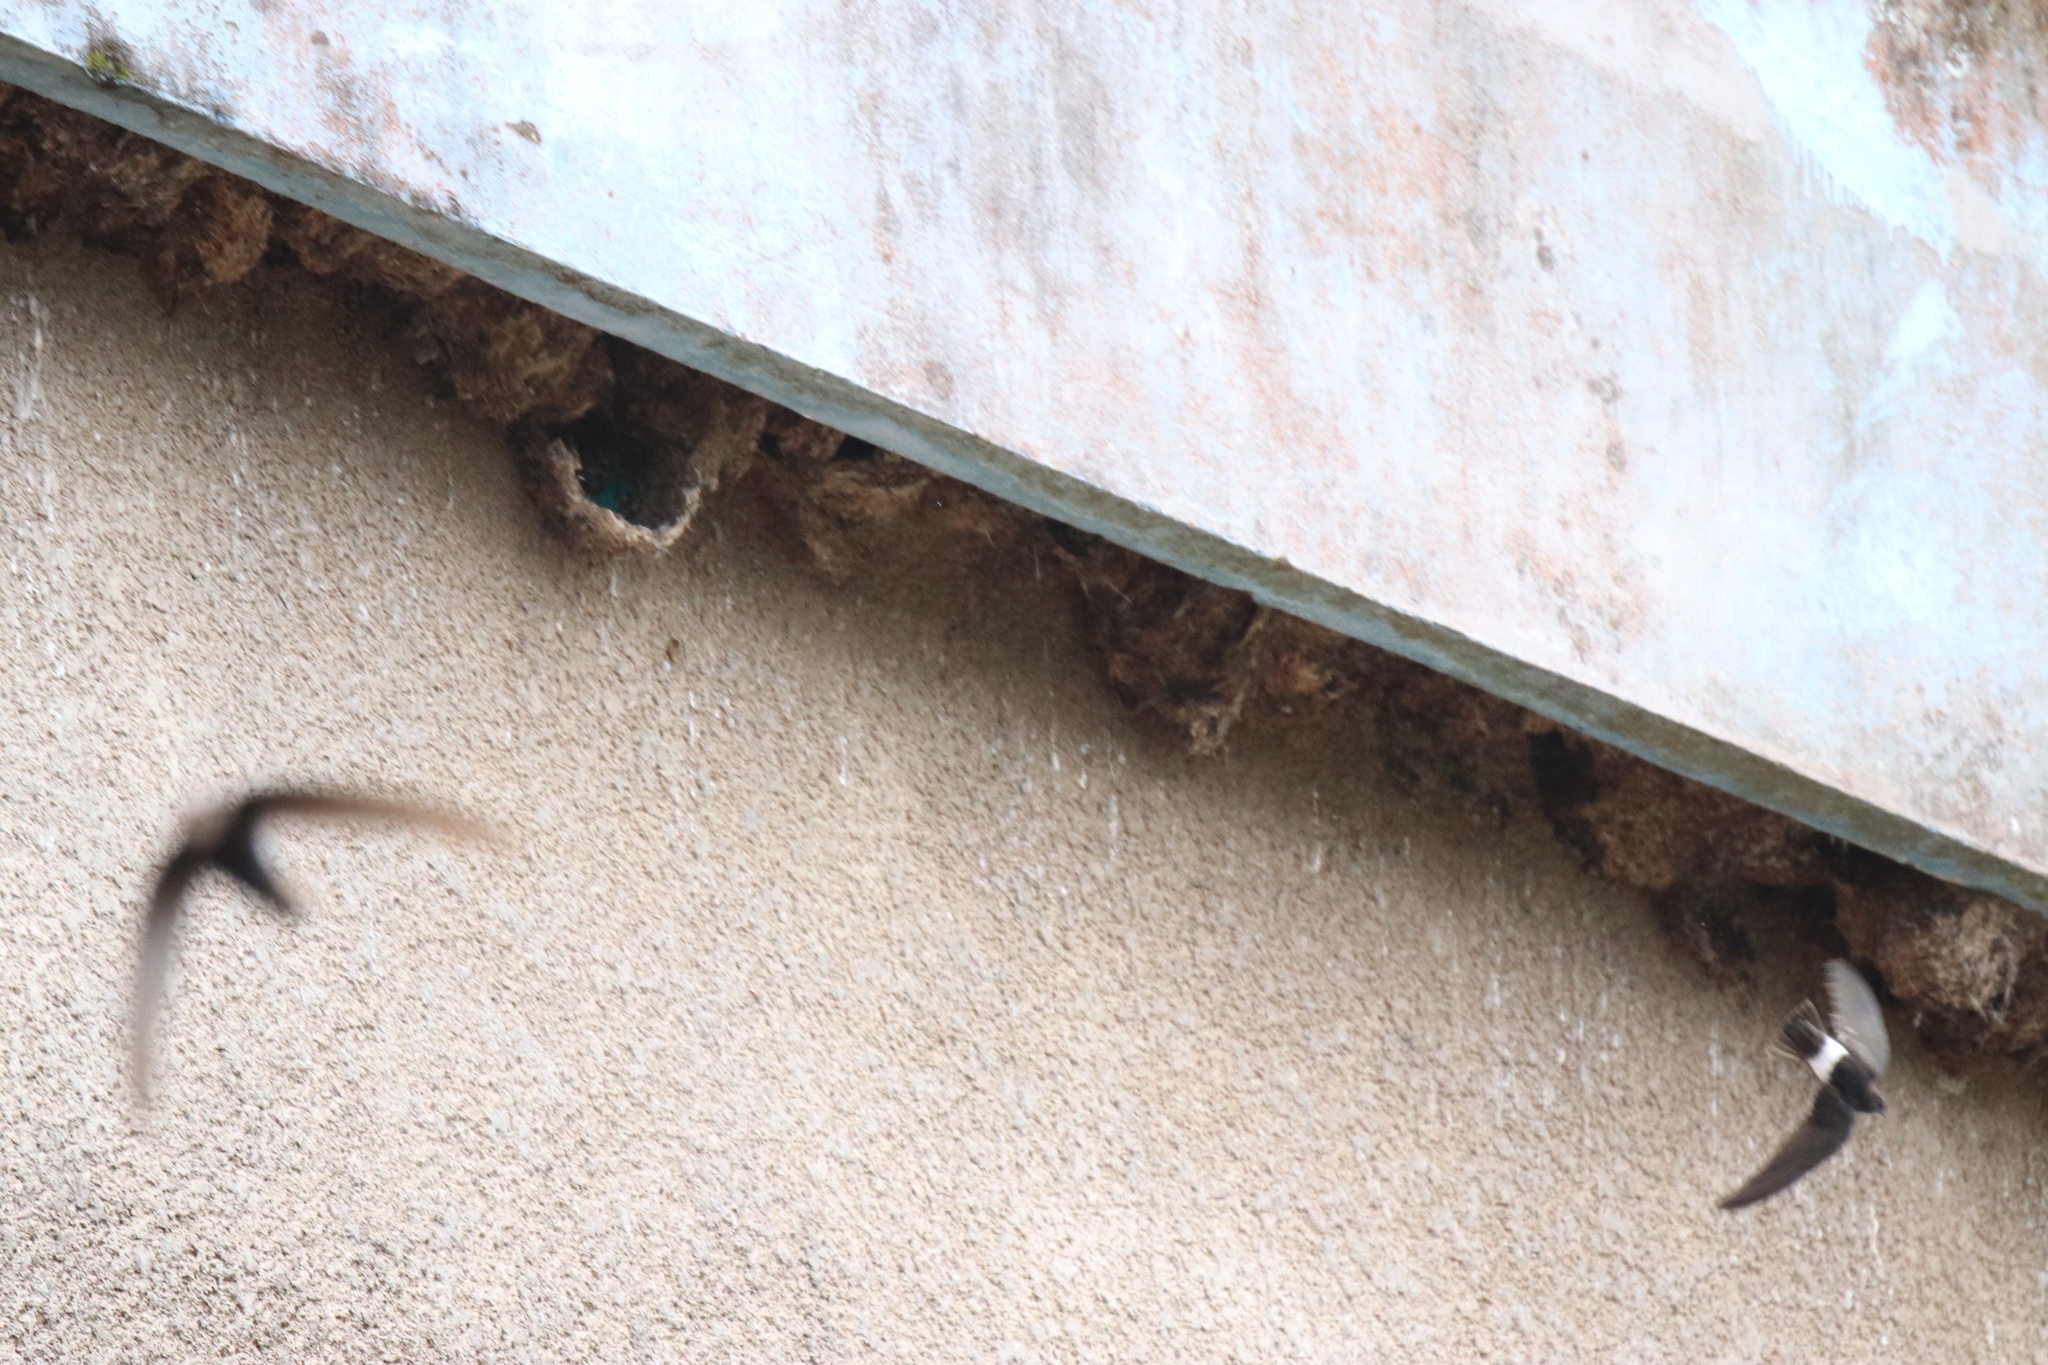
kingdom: Animalia
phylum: Chordata
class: Aves
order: Apodiformes
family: Apodidae
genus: Apus
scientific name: Apus affinis
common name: Little swift
